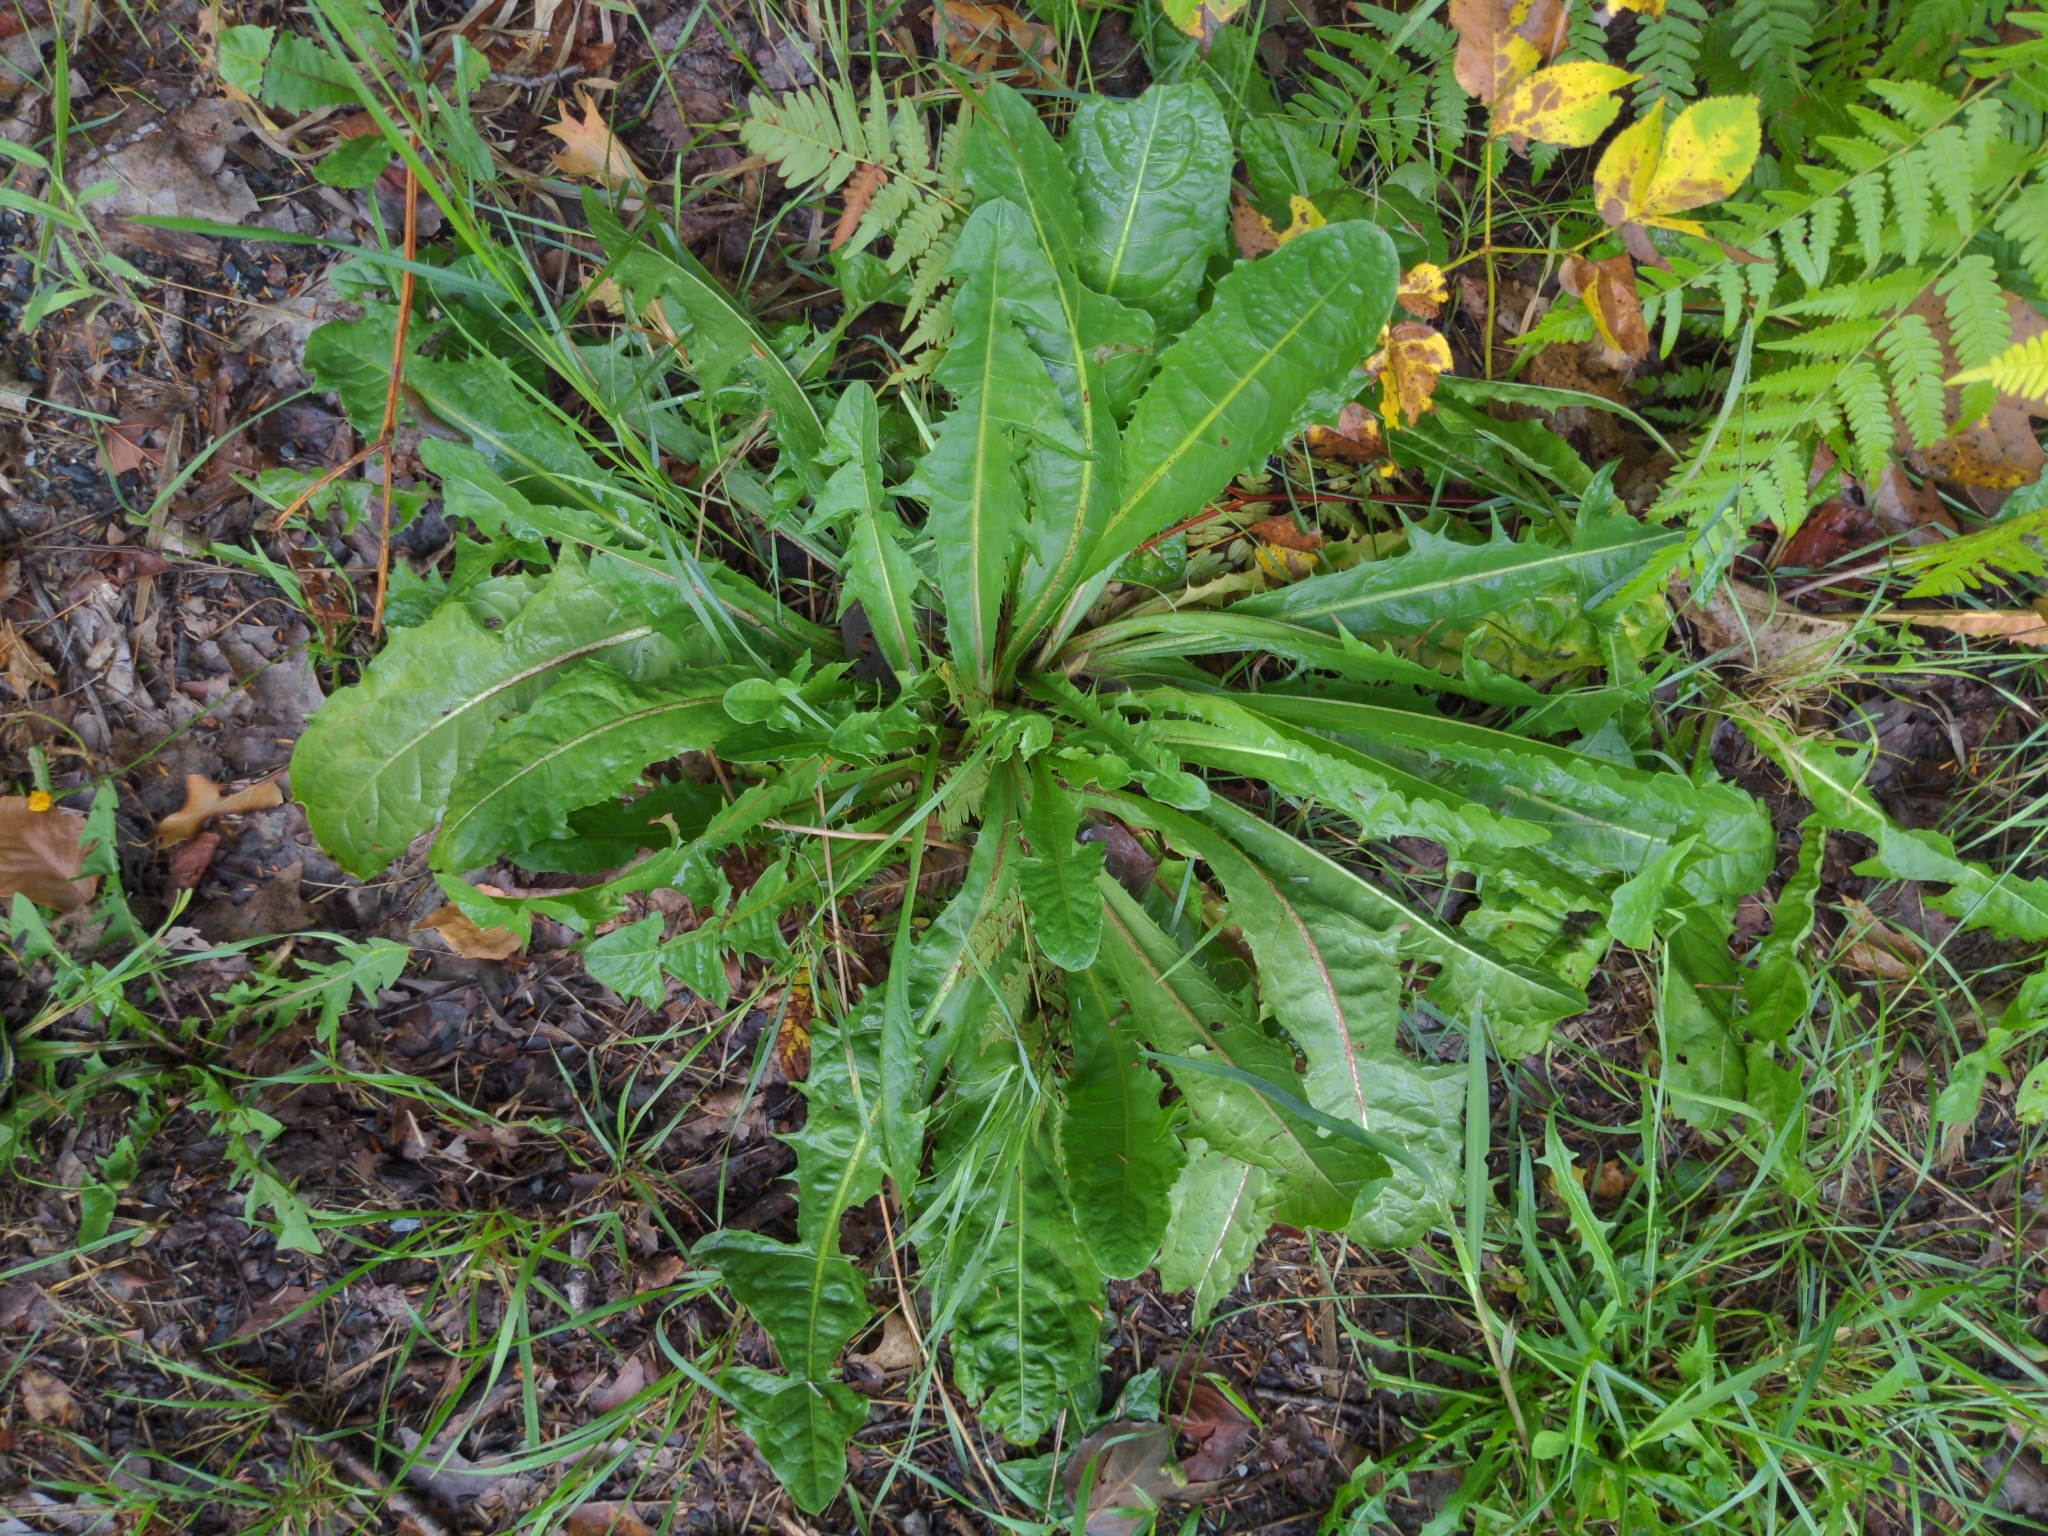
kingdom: Plantae
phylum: Tracheophyta
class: Magnoliopsida
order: Asterales
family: Asteraceae
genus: Taraxacum
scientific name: Taraxacum officinale
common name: Common dandelion
